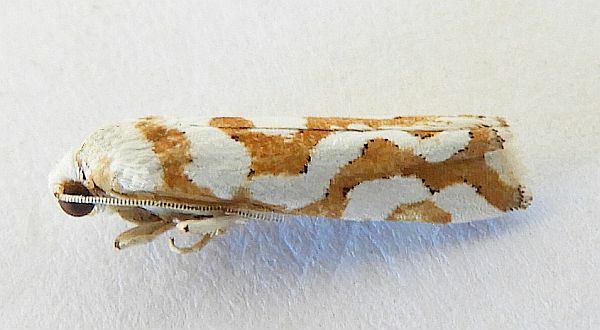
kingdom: Animalia
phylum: Arthropoda
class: Insecta
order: Lepidoptera
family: Tortricidae
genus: Pelochrista
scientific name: Pelochrista bolanderana
